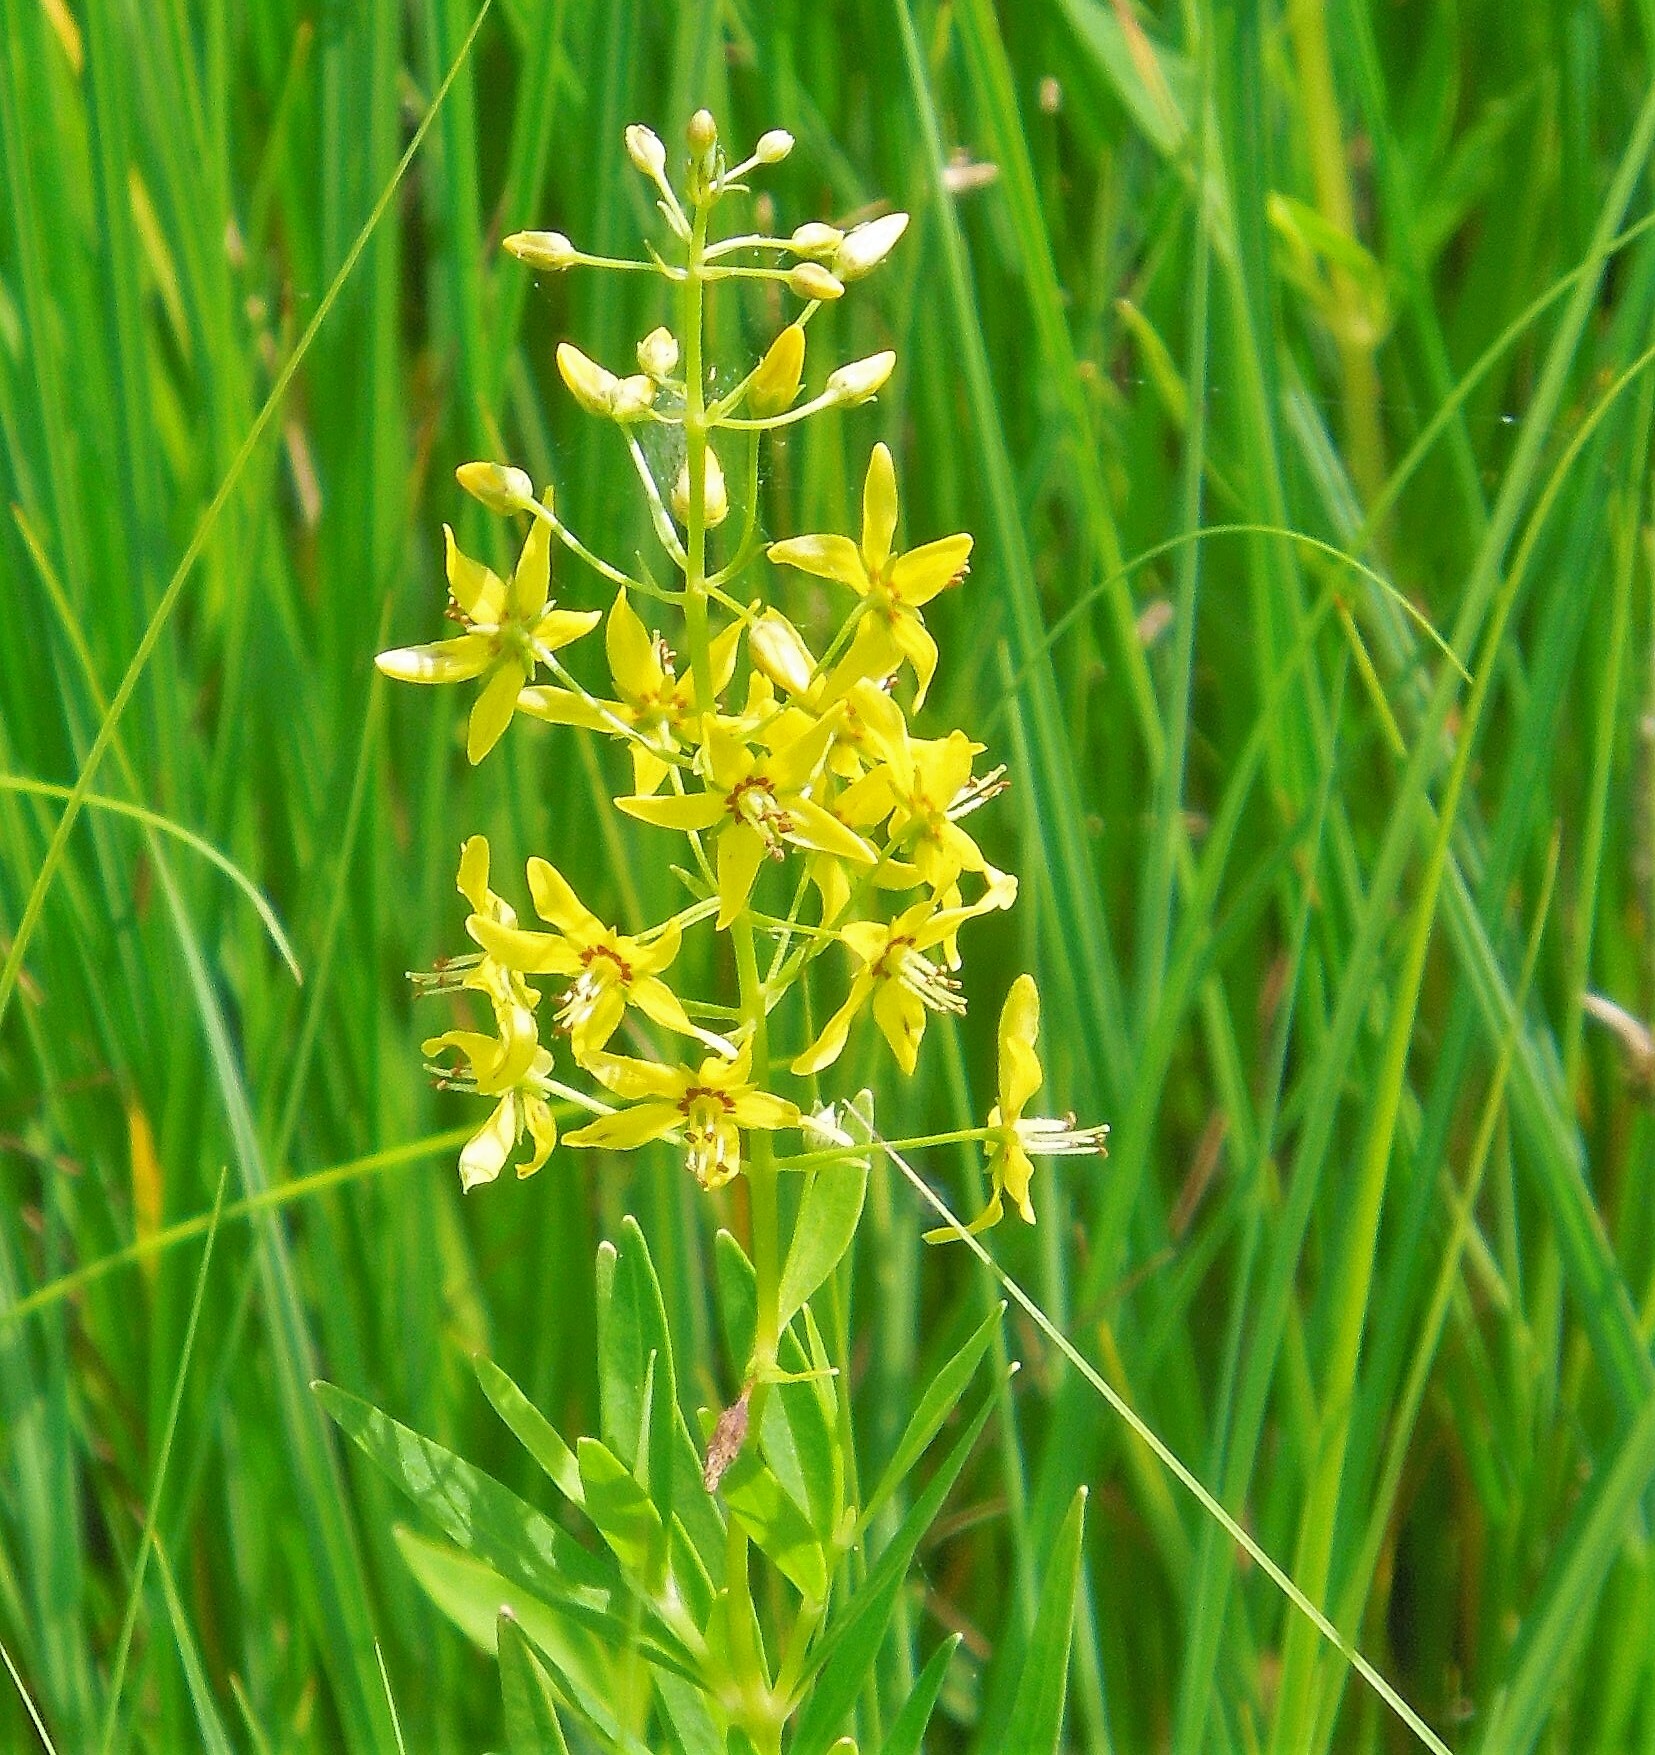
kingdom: Plantae
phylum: Tracheophyta
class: Magnoliopsida
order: Ericales
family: Primulaceae
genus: Lysimachia
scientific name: Lysimachia terrestris
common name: Lake loosestrife
